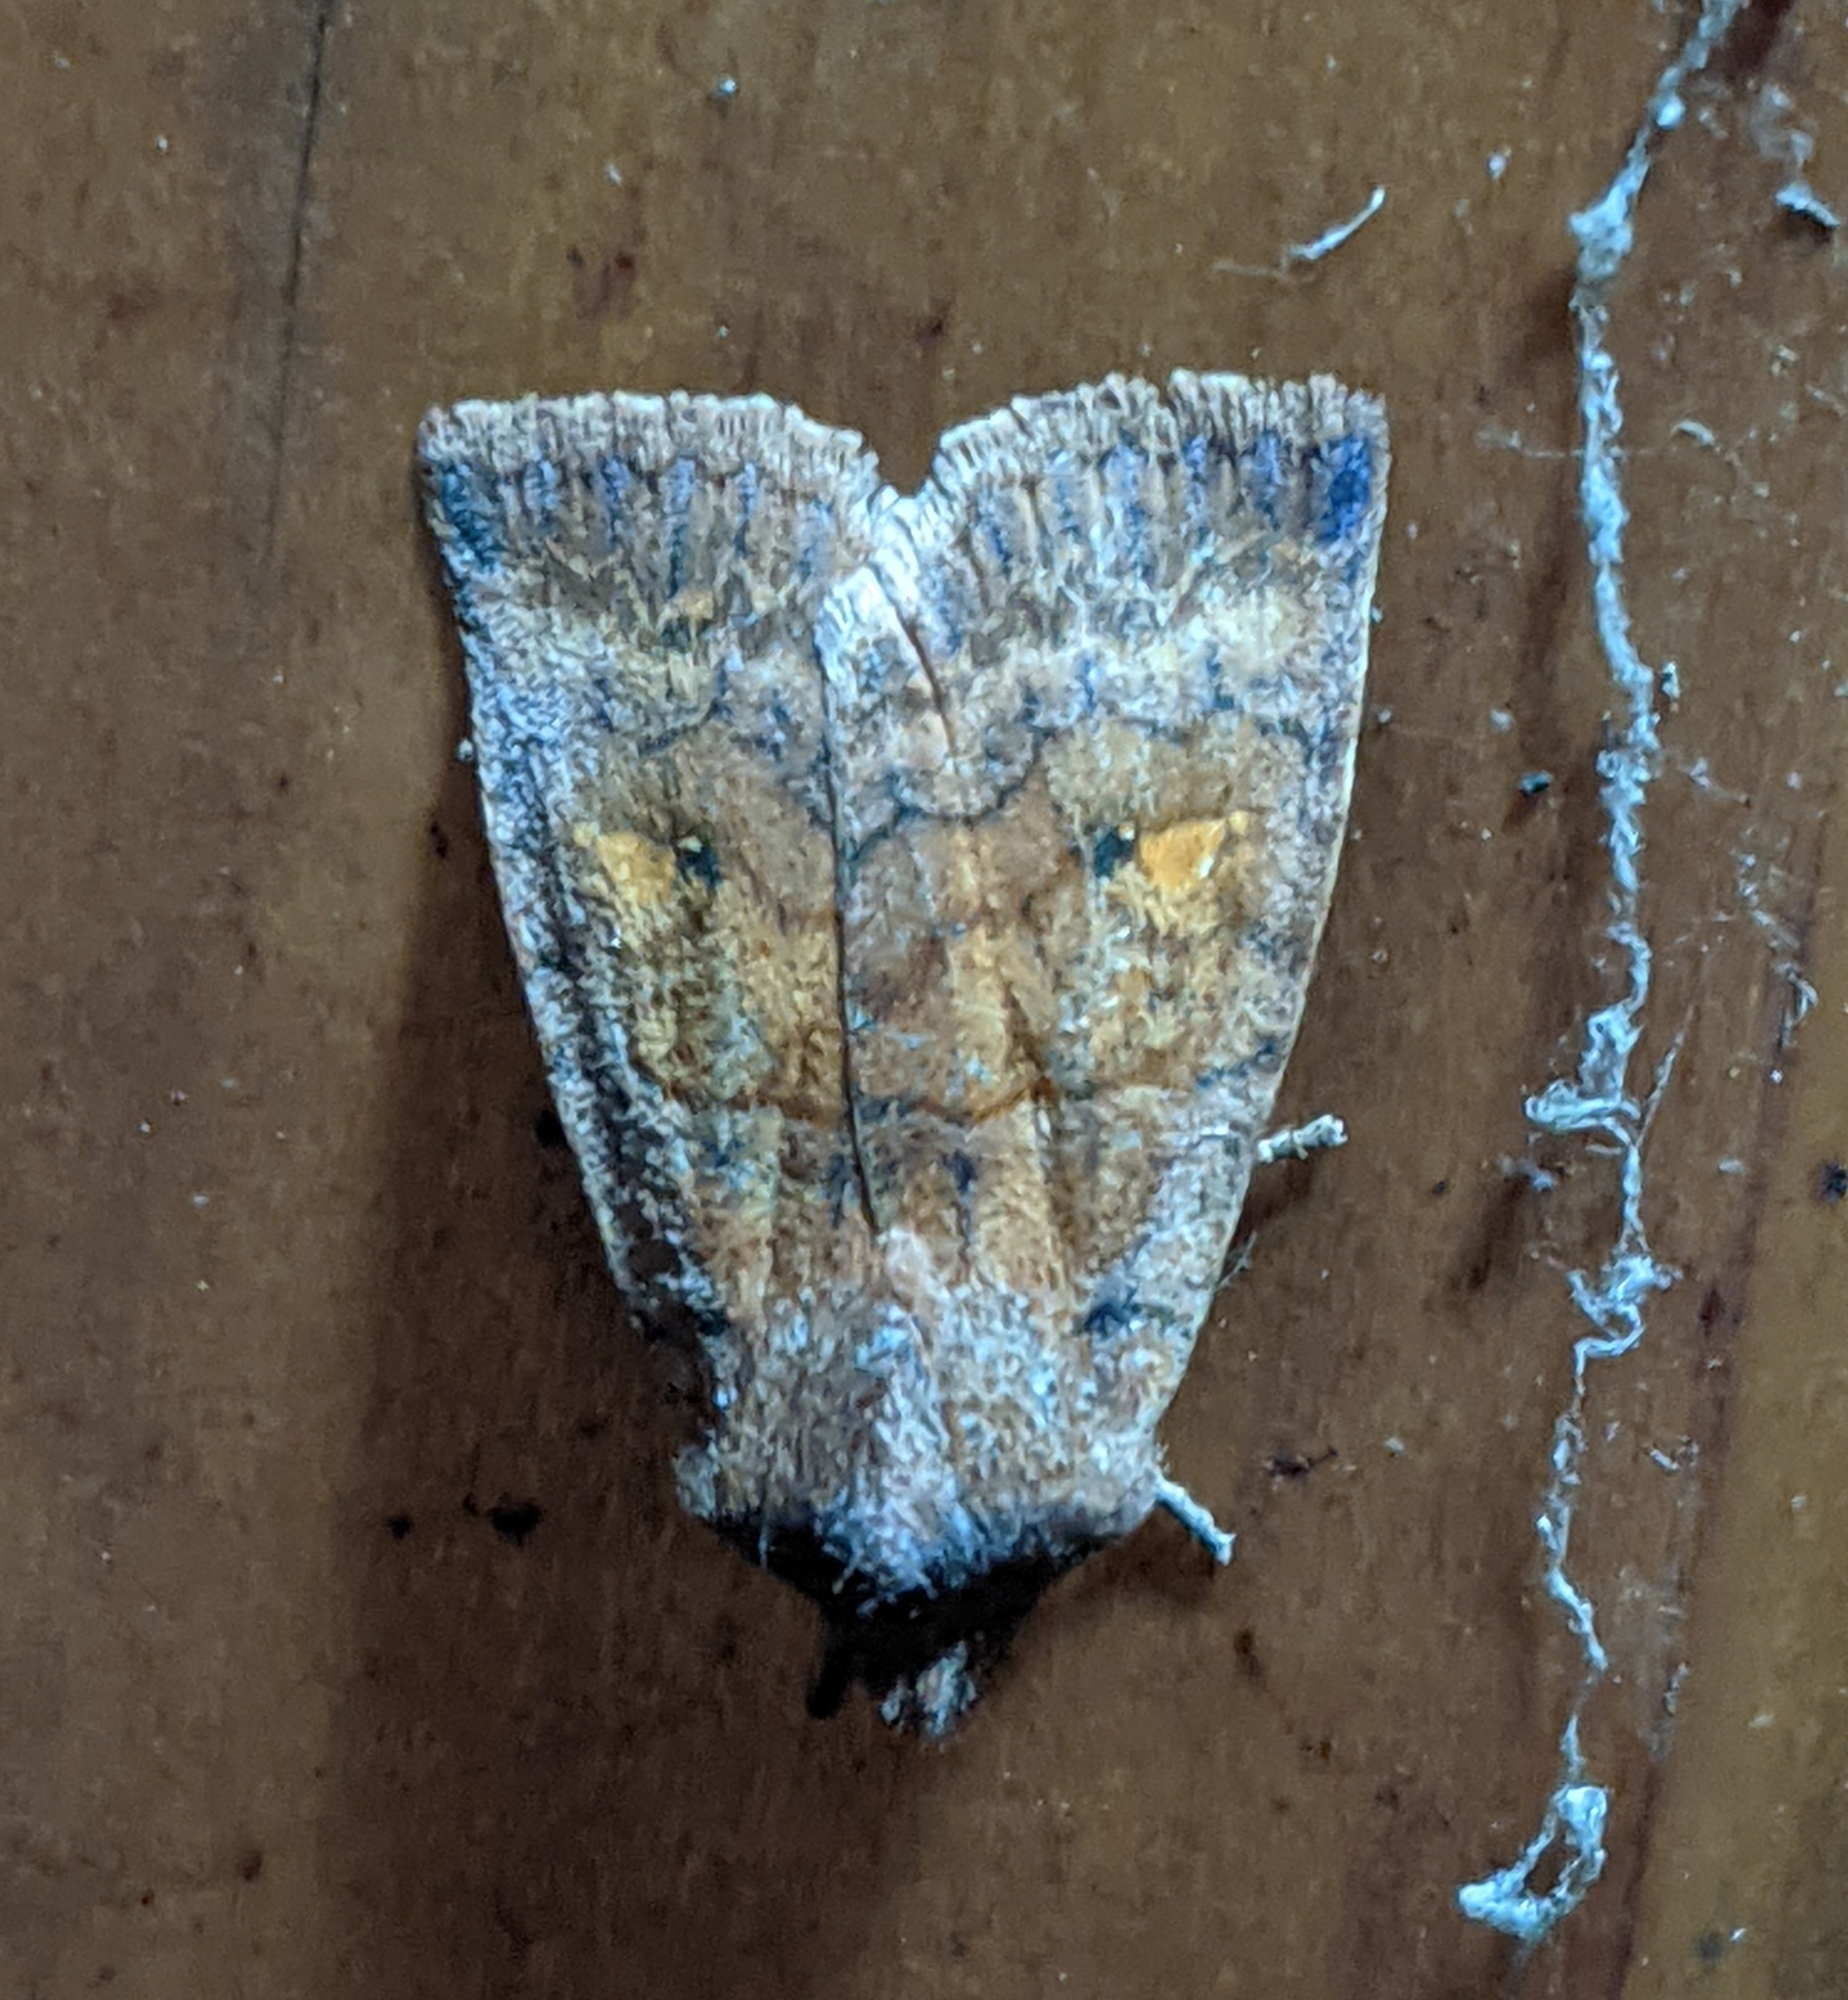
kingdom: Animalia
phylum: Arthropoda
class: Insecta
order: Lepidoptera
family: Noctuidae
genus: Eupsilia
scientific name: Eupsilia tristigmata
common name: Three-spotted sallow
